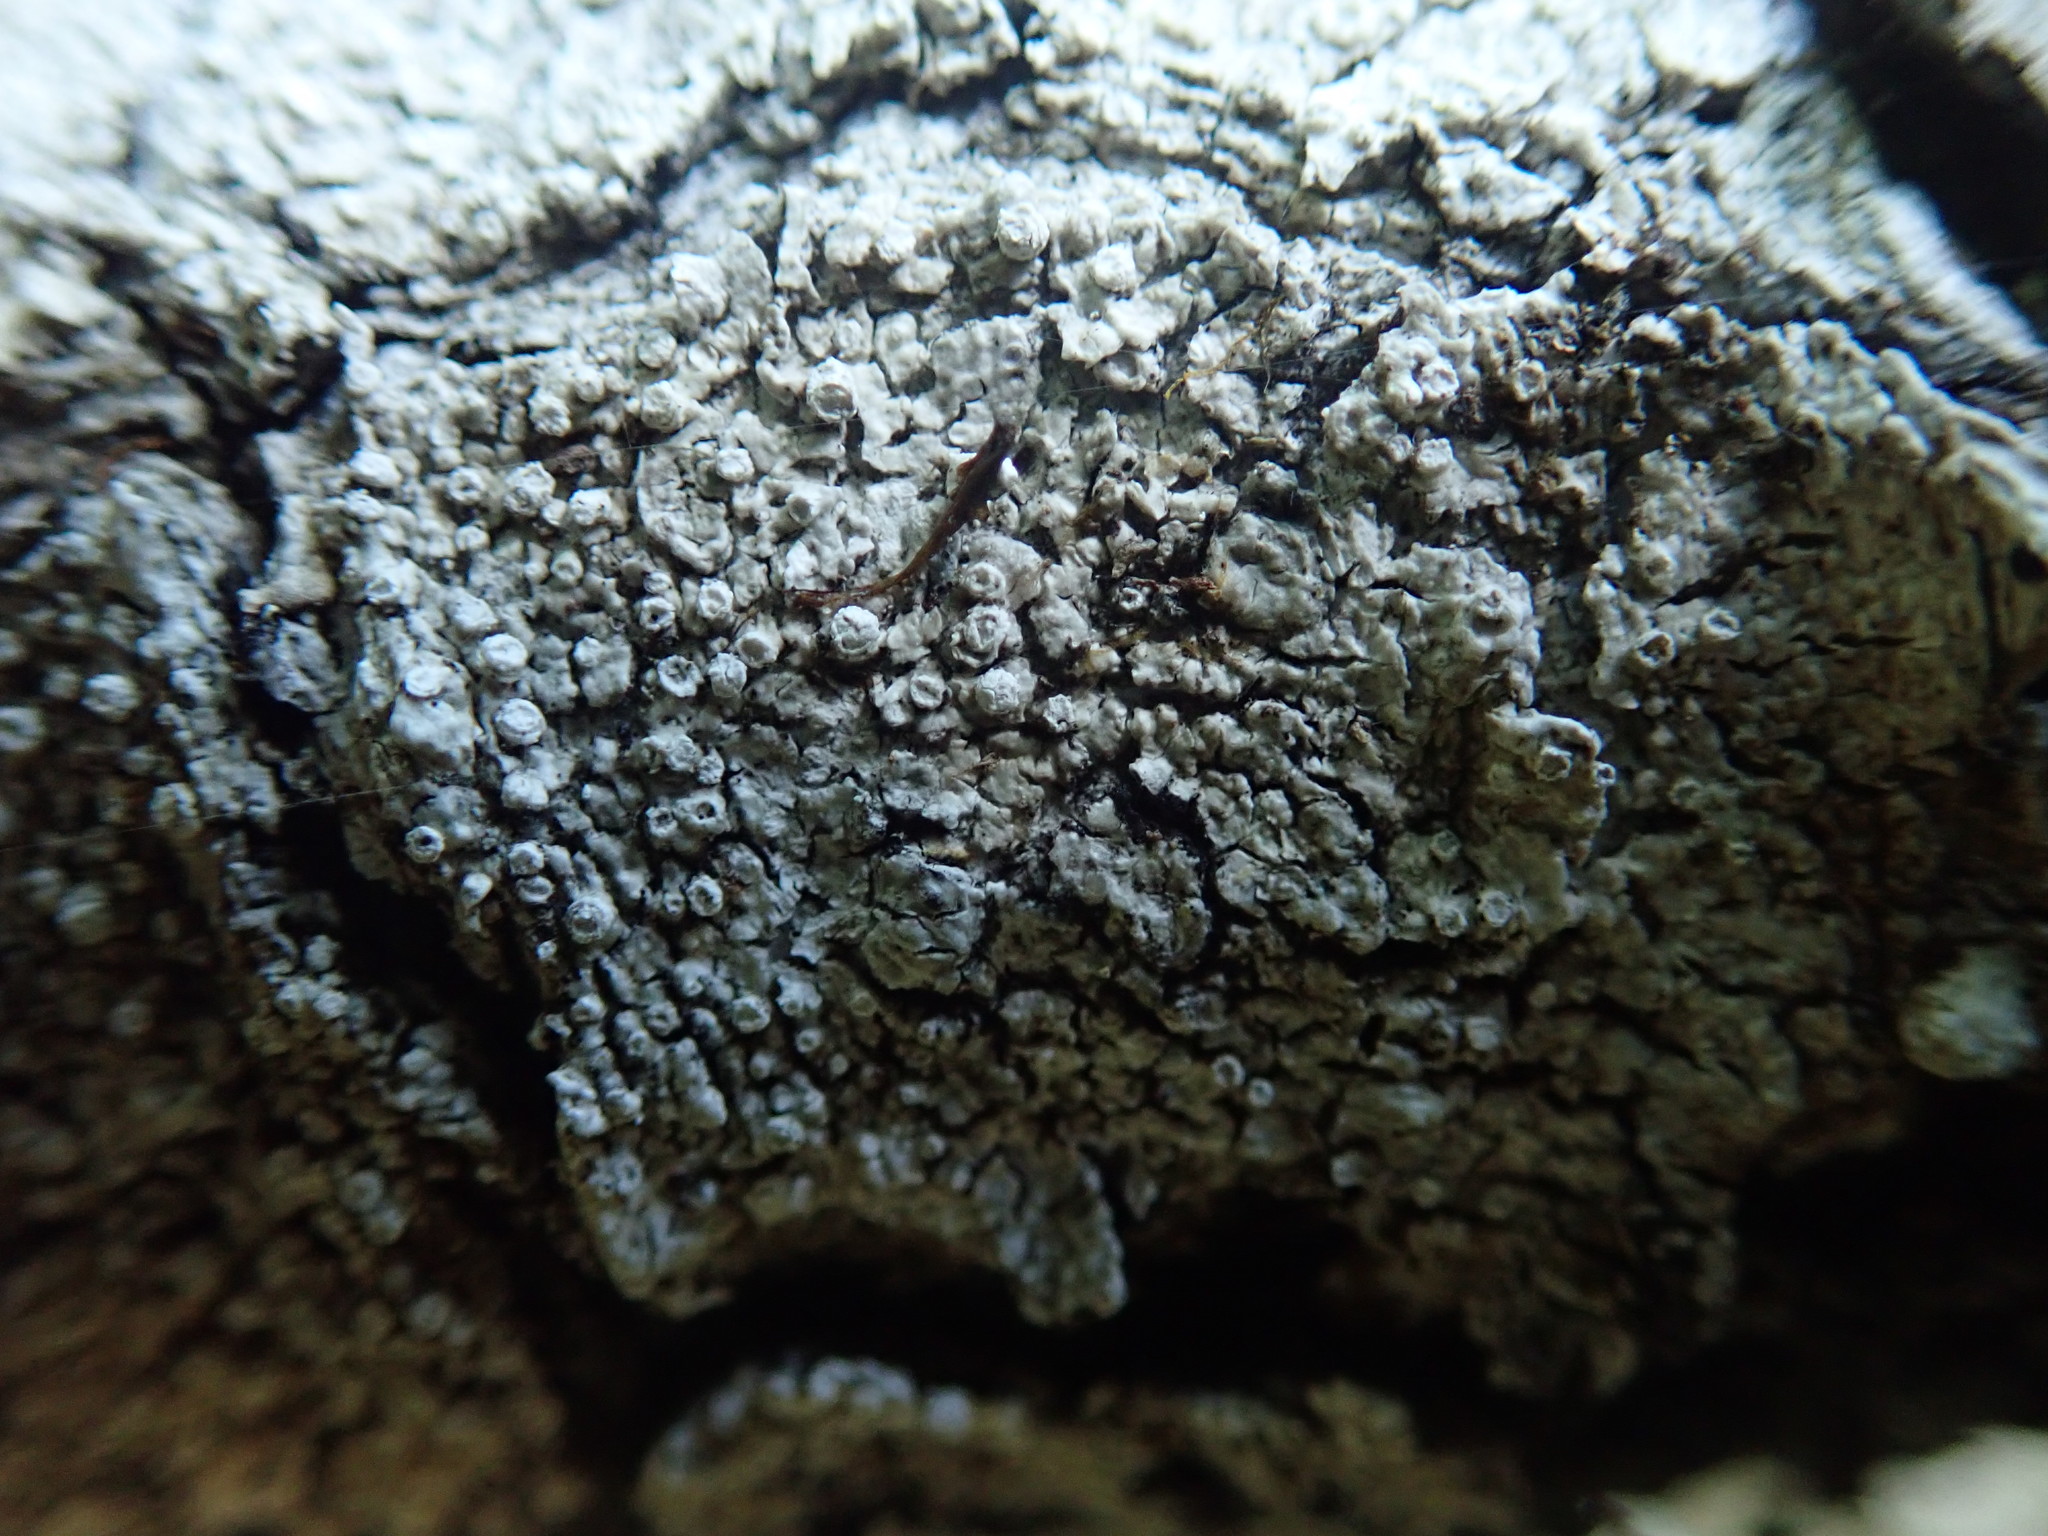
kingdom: Fungi
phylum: Ascomycota
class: Lecanoromycetes
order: Pertusariales
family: Pertusariaceae
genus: Pertusaria
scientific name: Pertusaria subambigens
